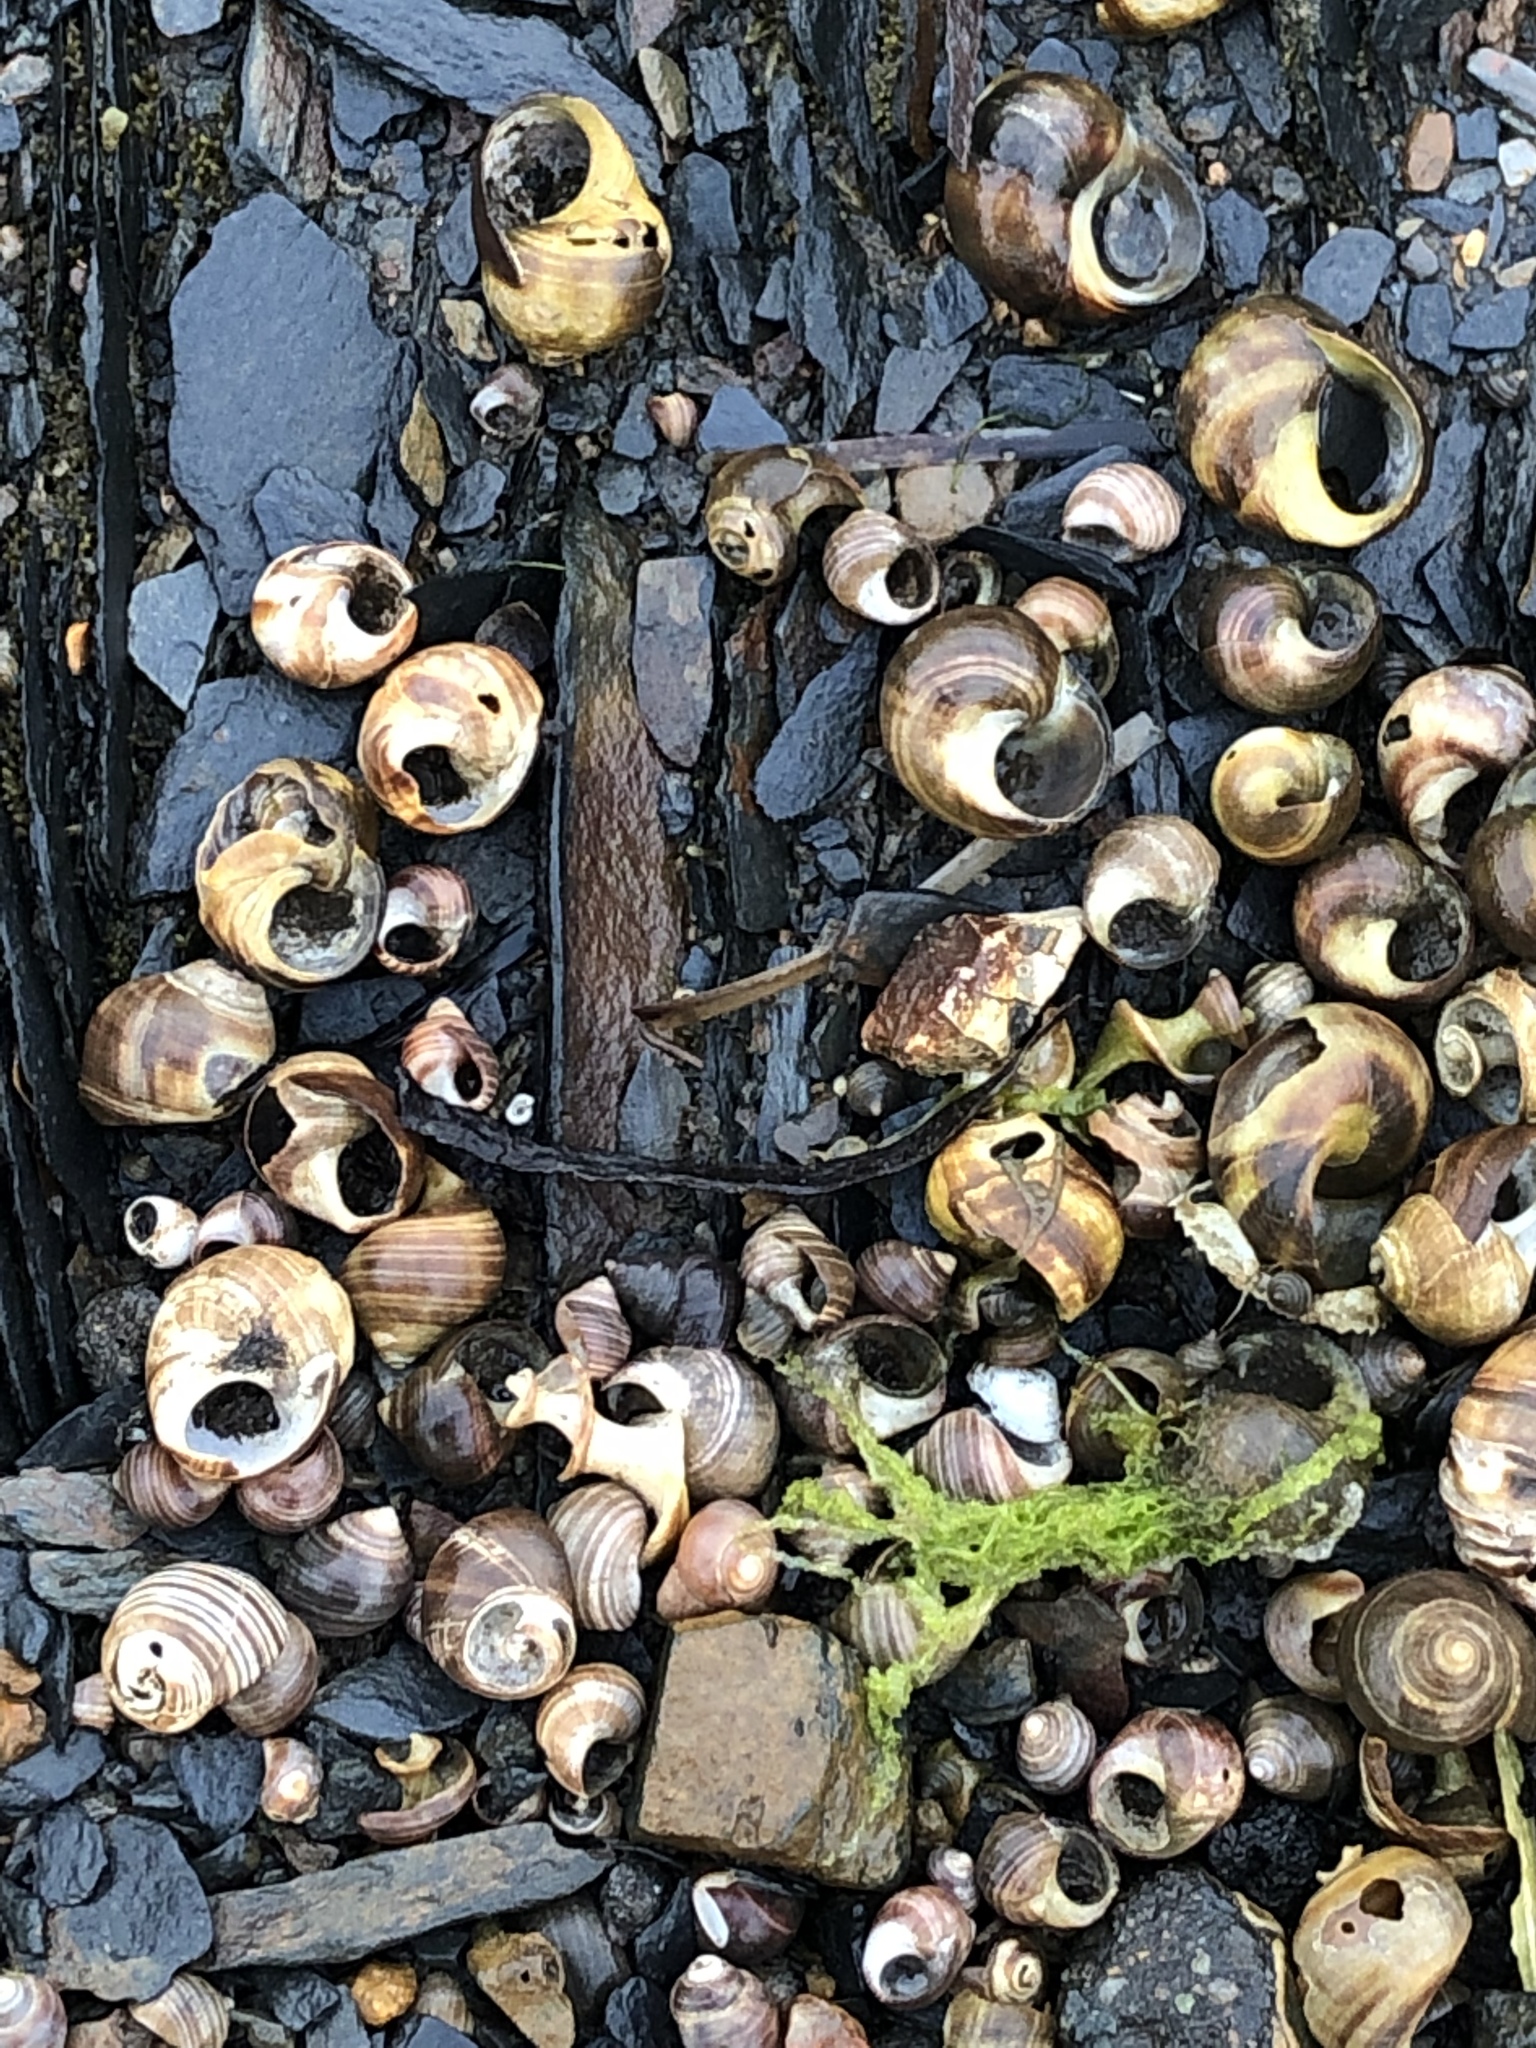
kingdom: Animalia
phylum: Mollusca
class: Gastropoda
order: Littorinimorpha
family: Littorinidae
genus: Littorina
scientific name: Littorina littorea
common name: Common periwinkle
